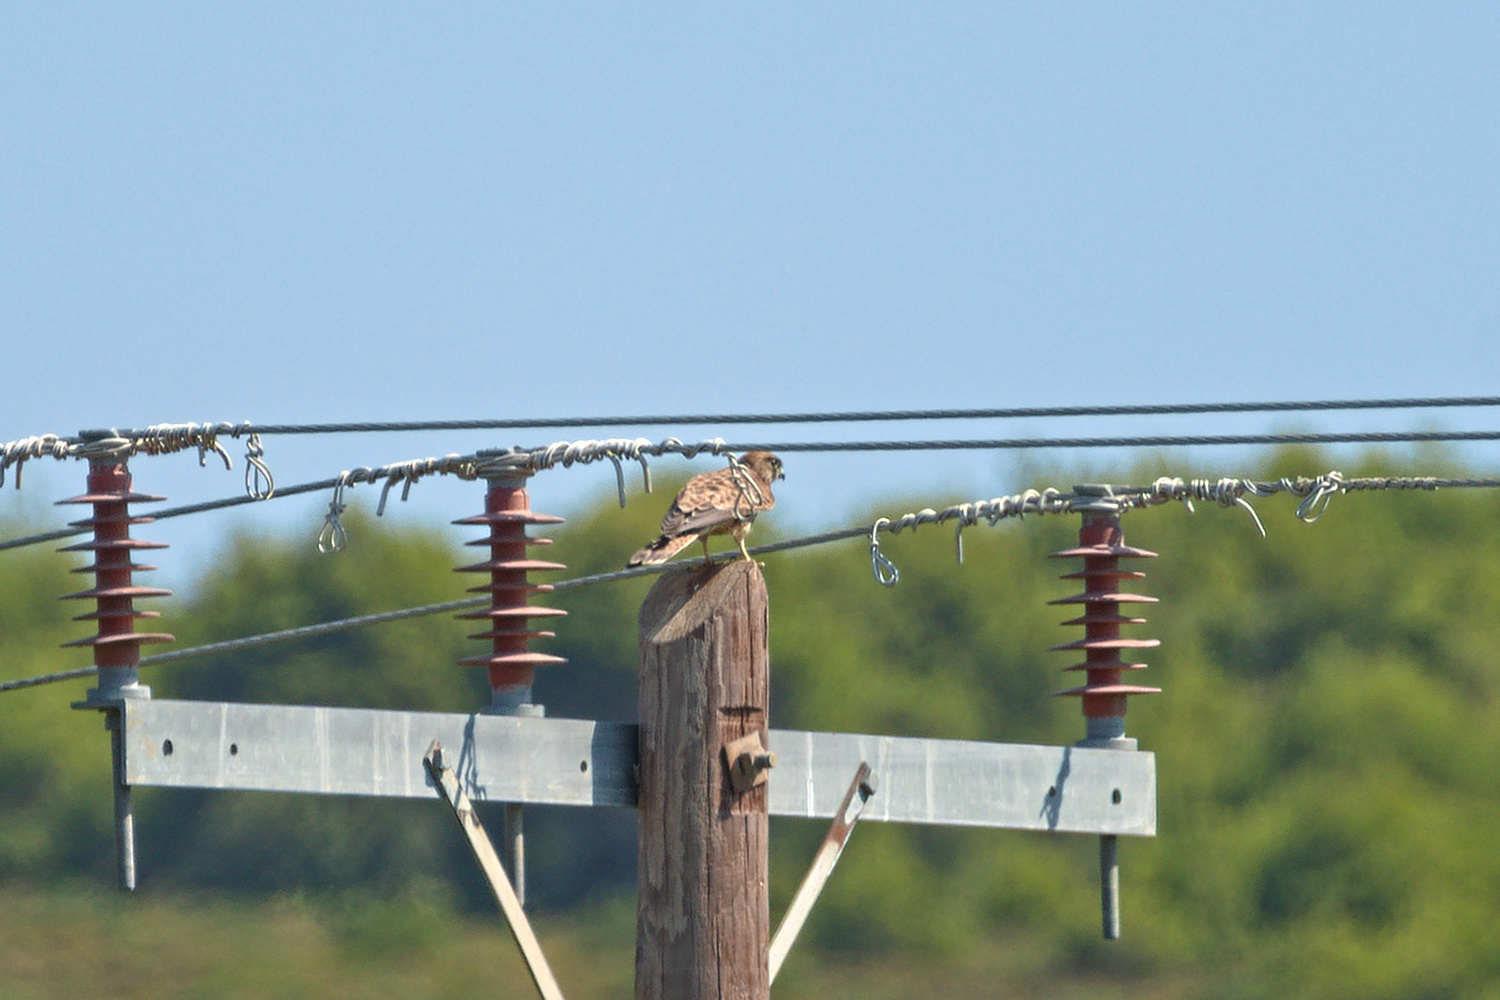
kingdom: Animalia
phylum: Chordata
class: Aves
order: Falconiformes
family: Falconidae
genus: Falco
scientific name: Falco tinnunculus
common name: Common kestrel
